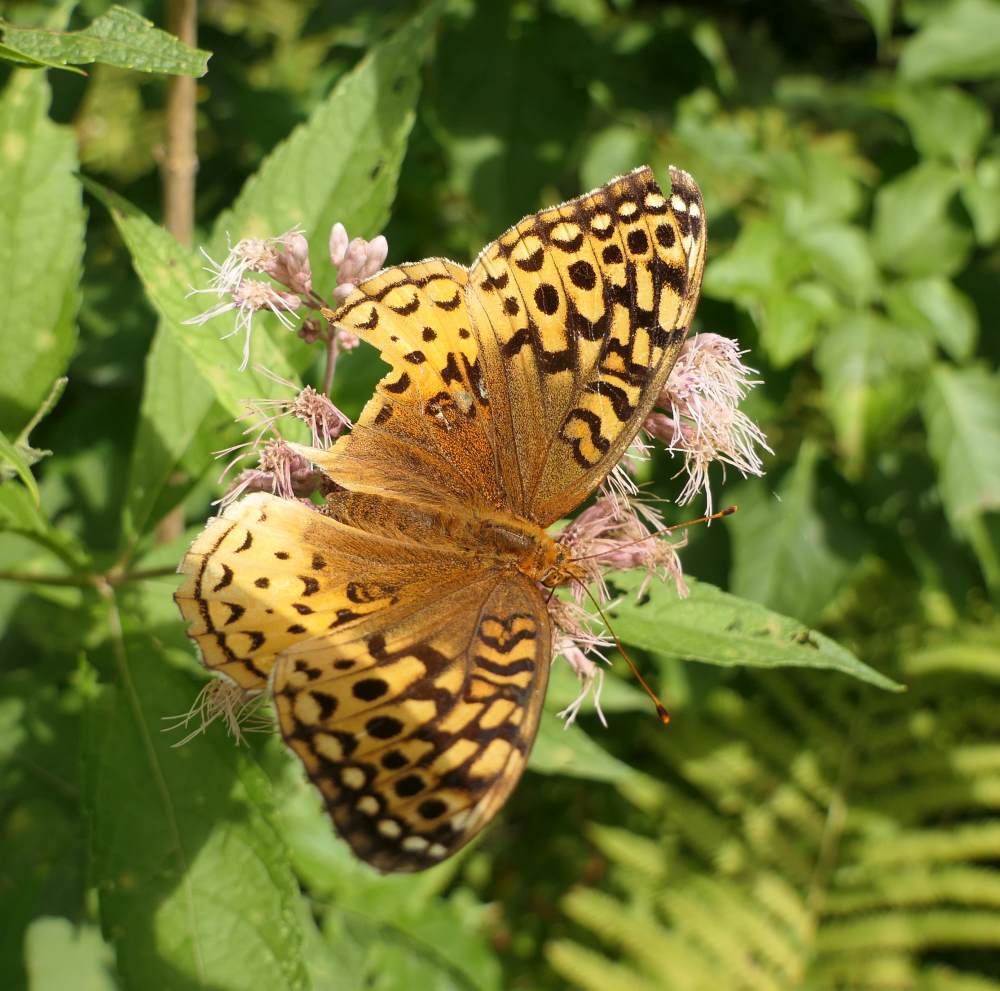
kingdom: Animalia
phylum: Arthropoda
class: Insecta
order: Lepidoptera
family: Nymphalidae
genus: Speyeria
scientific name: Speyeria cybele
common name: Great spangled fritillary
